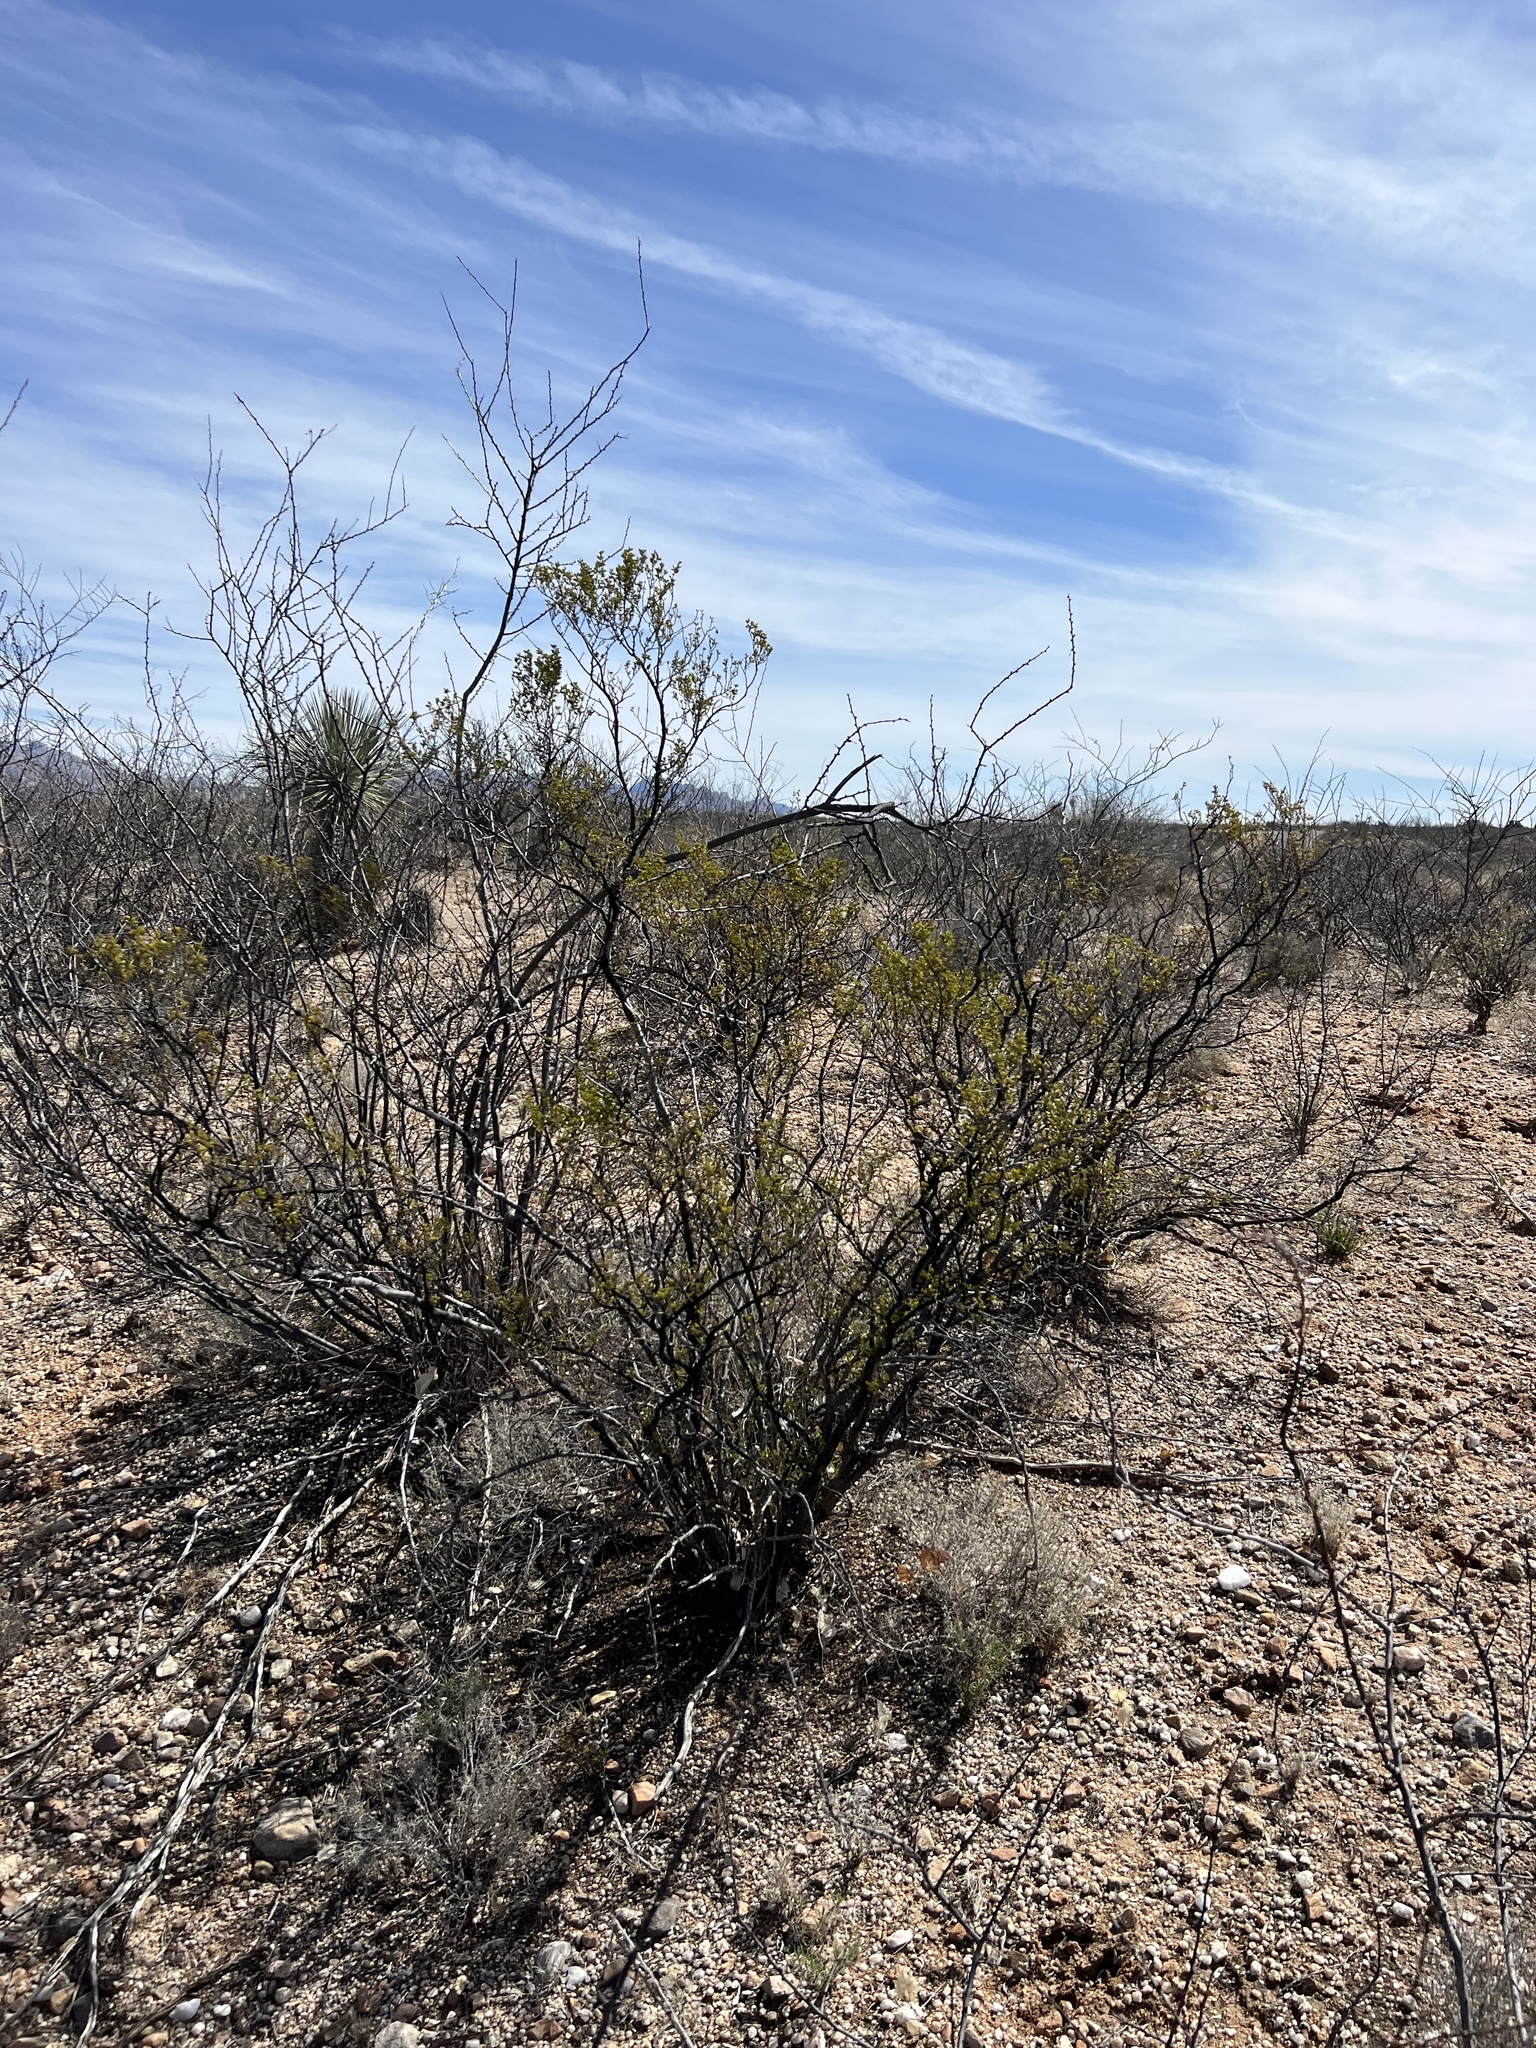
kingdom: Plantae
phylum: Tracheophyta
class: Magnoliopsida
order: Zygophyllales
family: Zygophyllaceae
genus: Larrea
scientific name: Larrea tridentata
